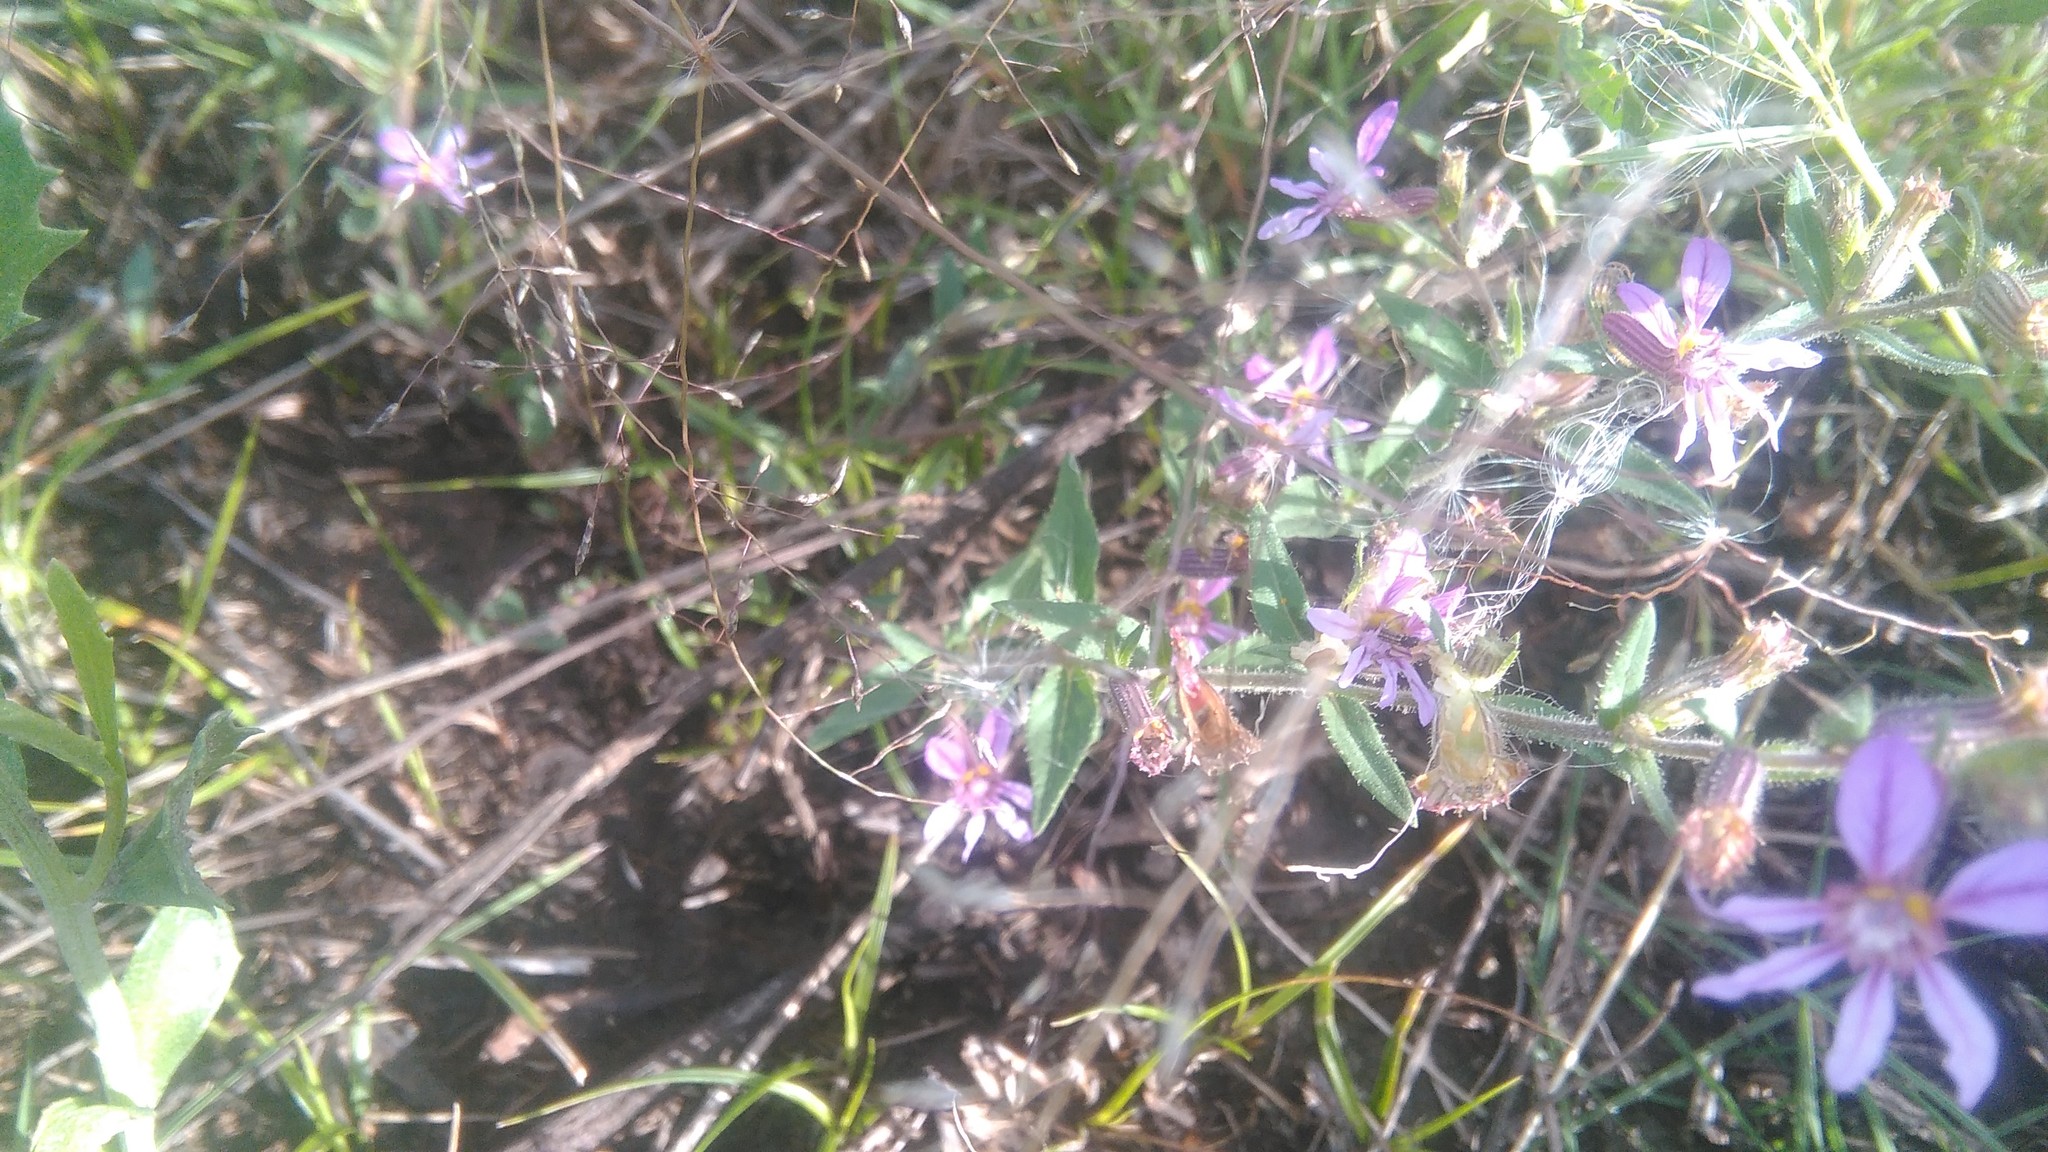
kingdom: Plantae
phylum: Tracheophyta
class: Magnoliopsida
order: Myrtales
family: Lythraceae
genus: Cuphea
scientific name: Cuphea glutinosa
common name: Sticky waxweed
